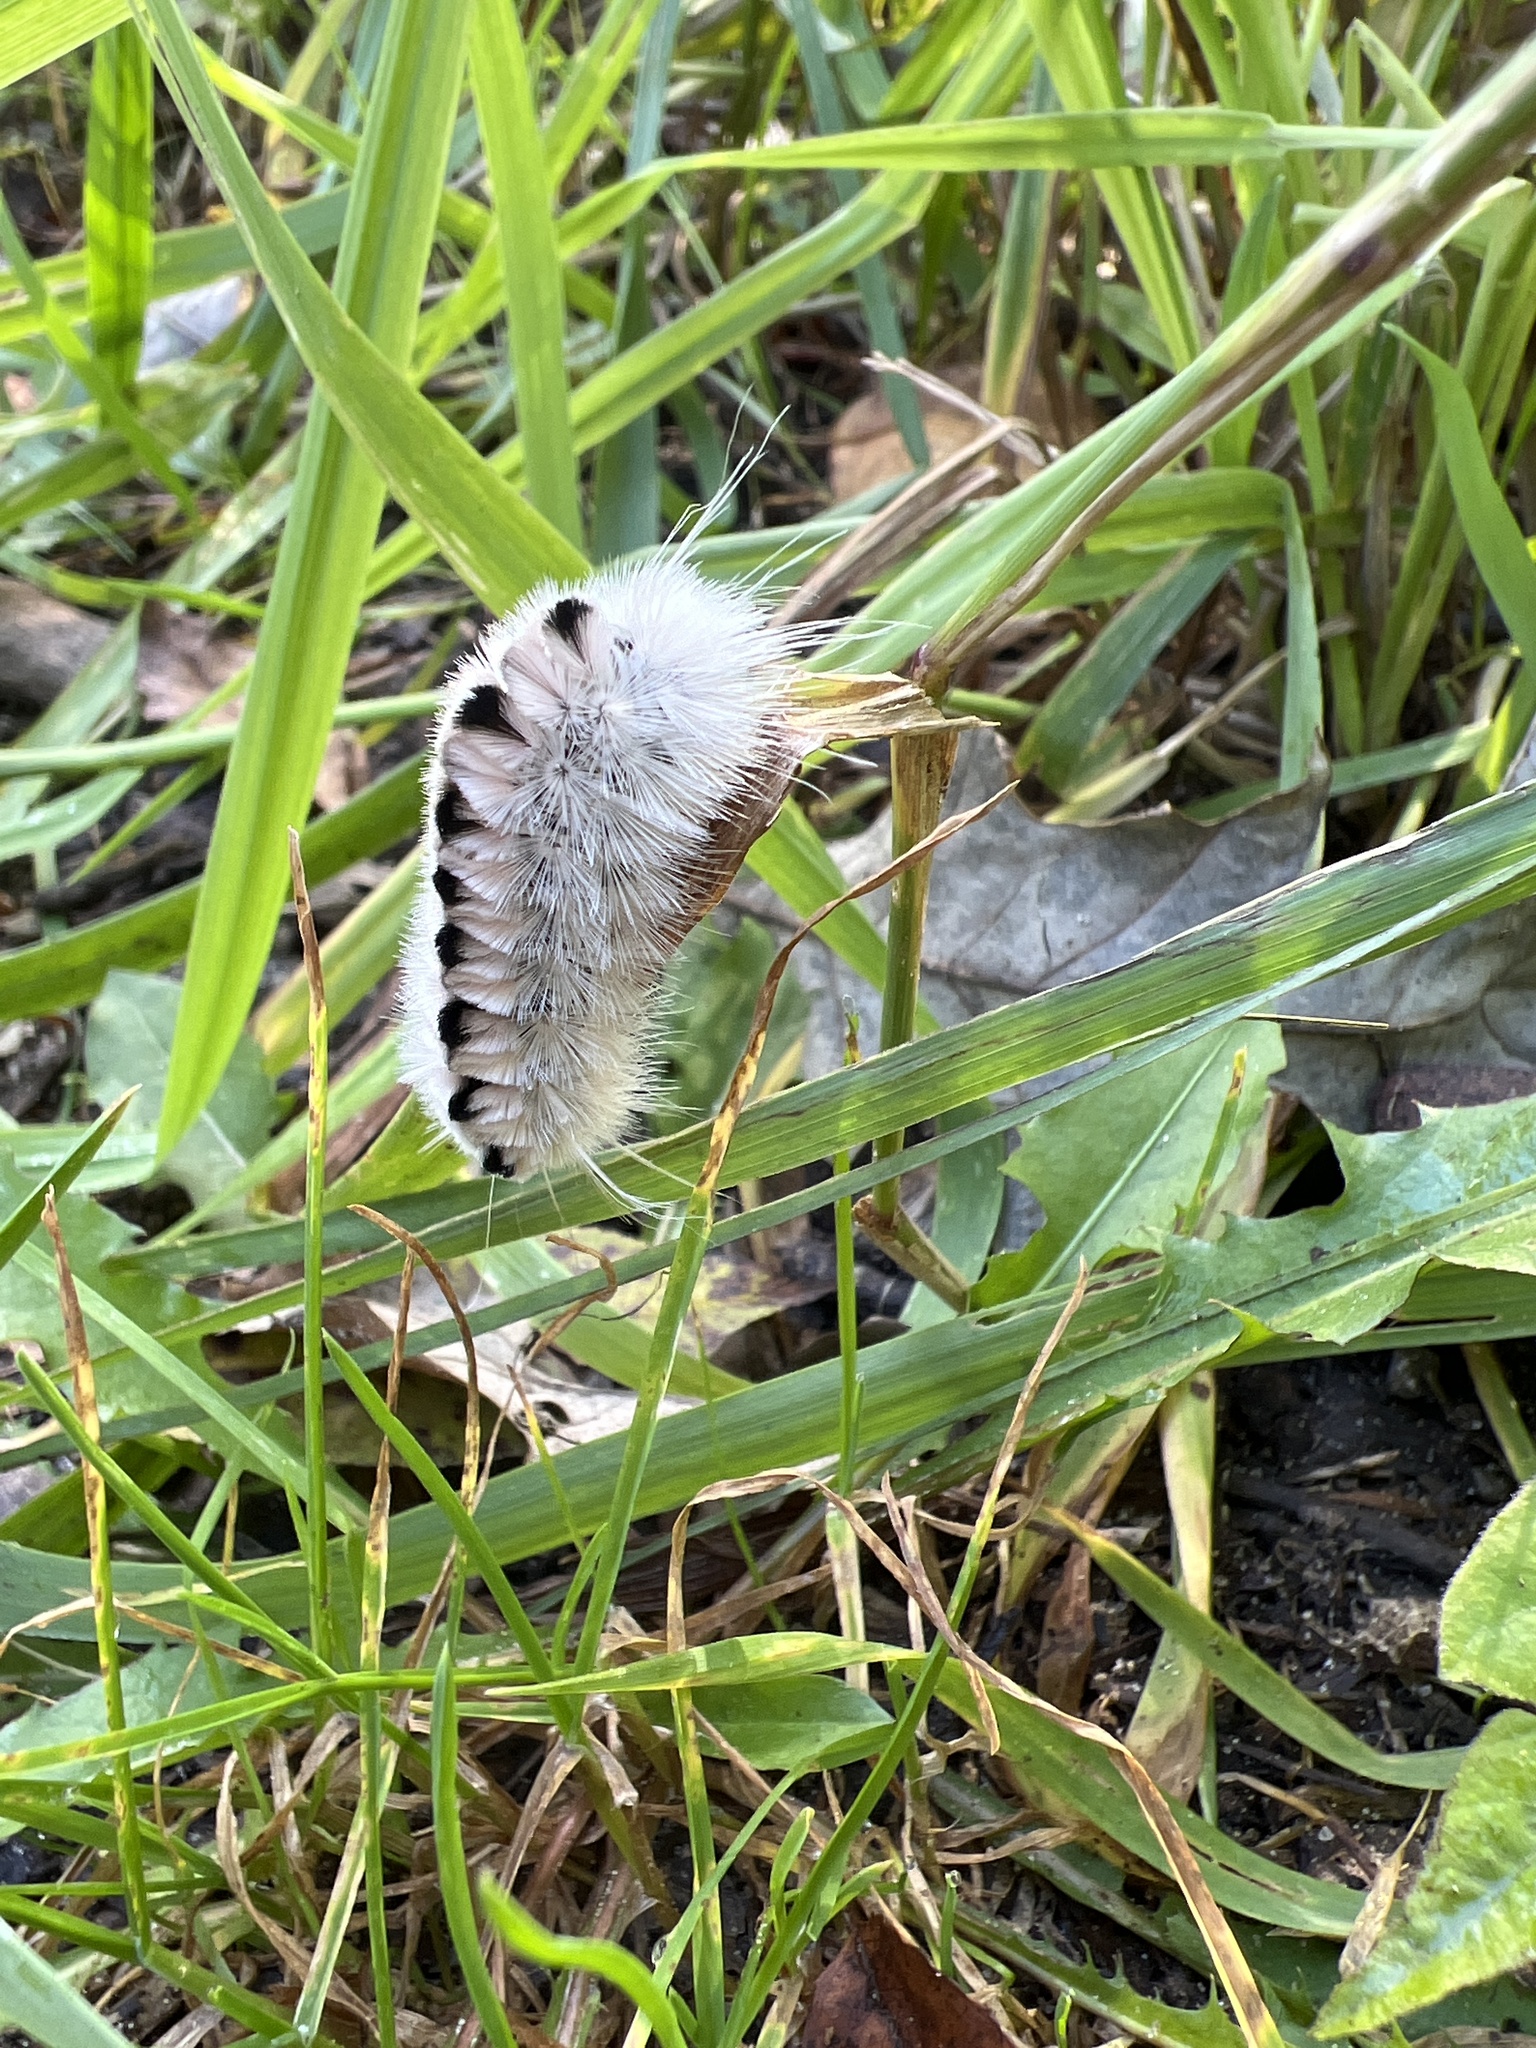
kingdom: Animalia
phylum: Arthropoda
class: Insecta
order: Lepidoptera
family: Erebidae
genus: Lophocampa
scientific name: Lophocampa caryae
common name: Hickory tussock moth
